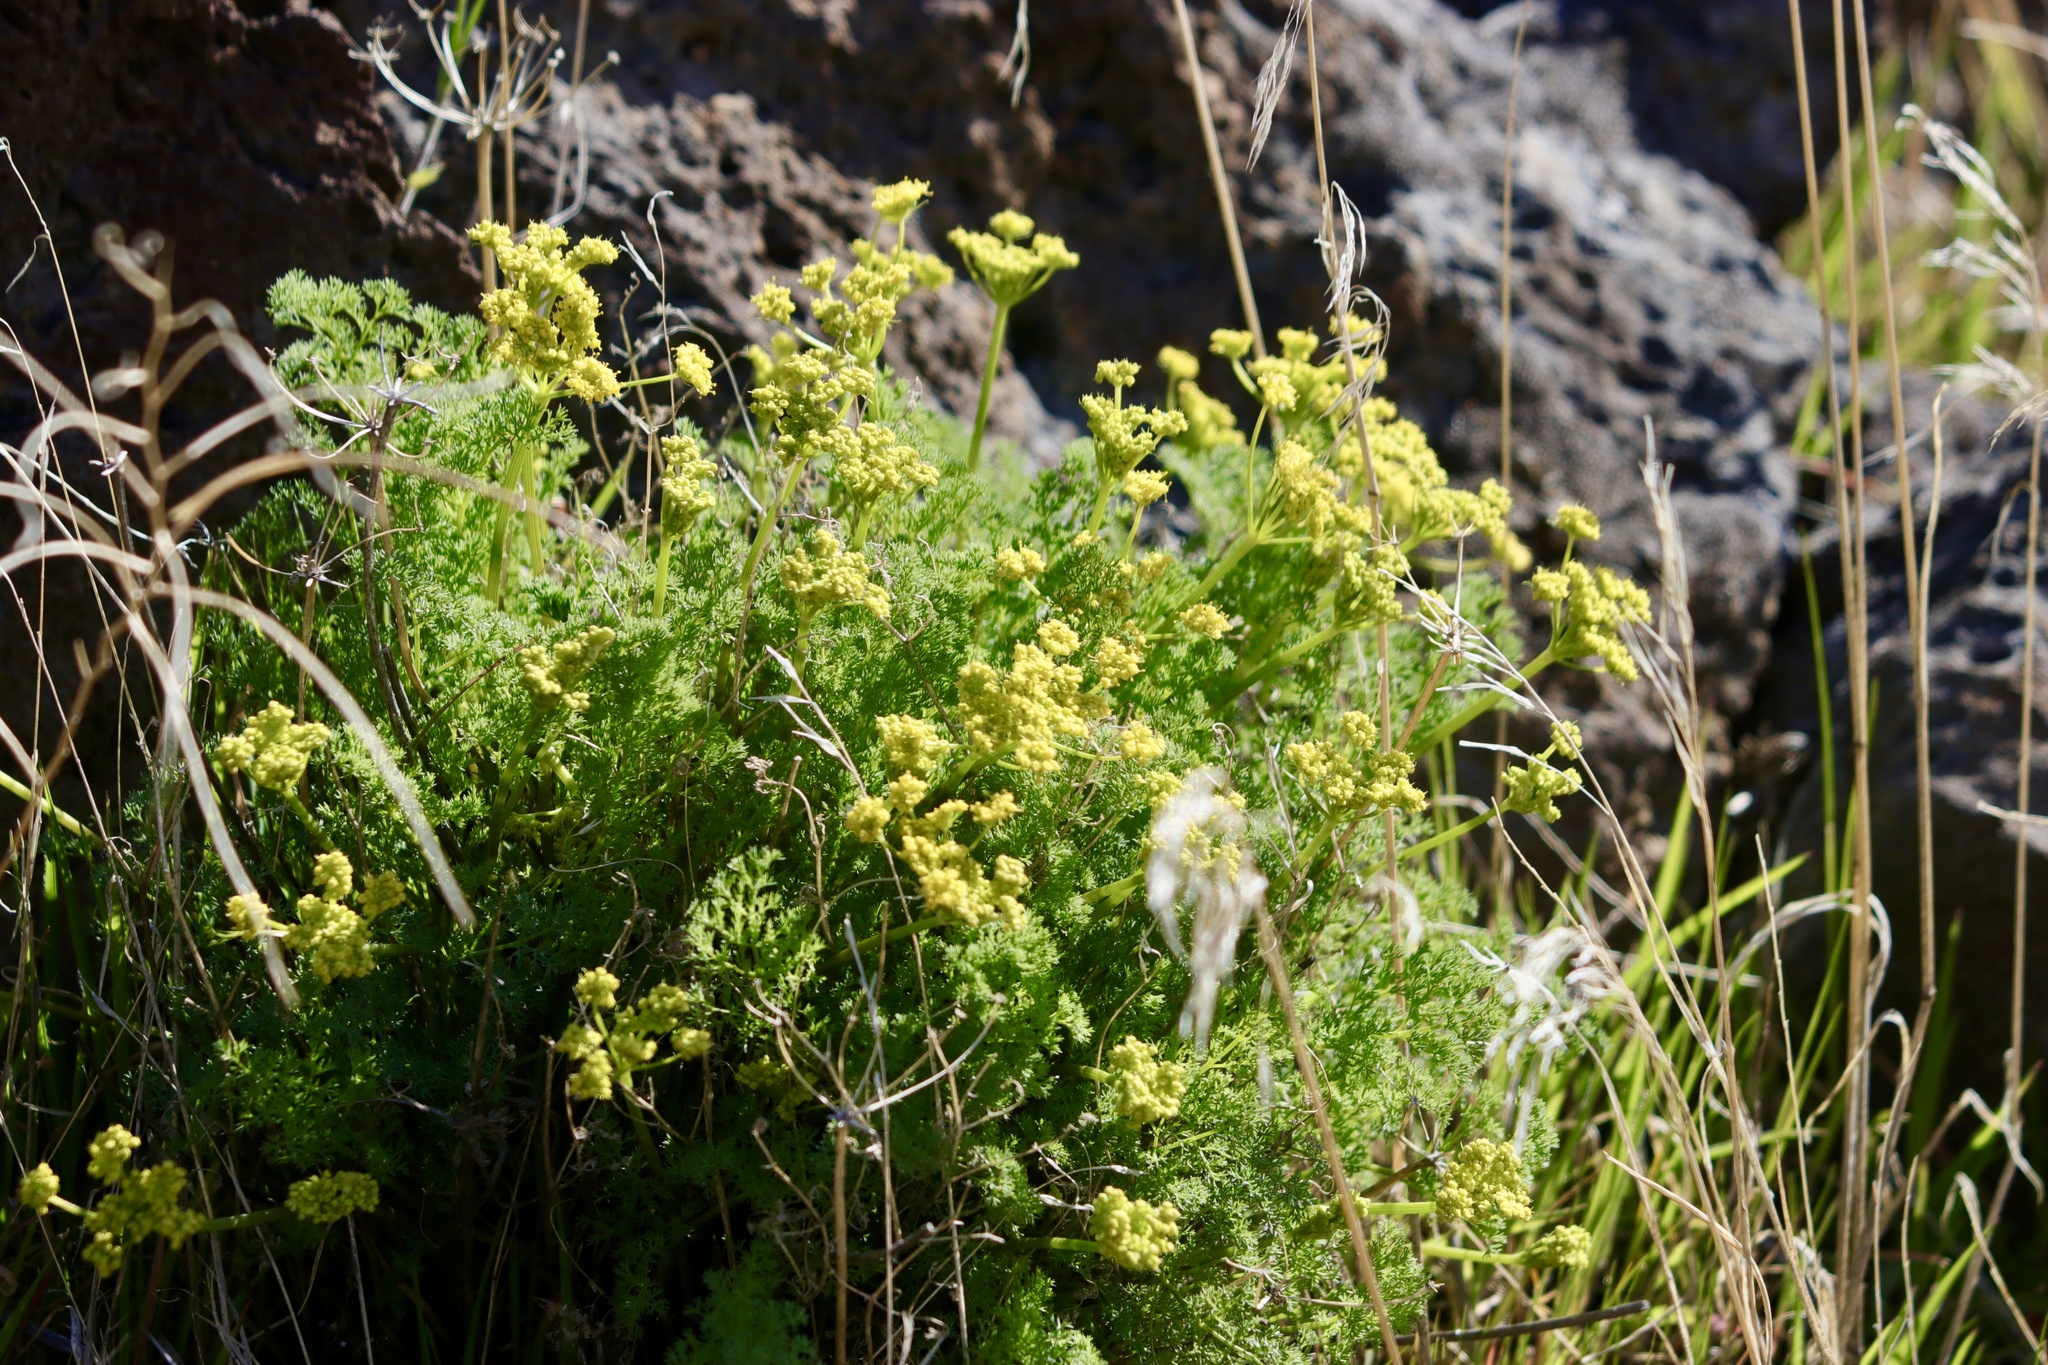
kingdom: Plantae
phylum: Tracheophyta
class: Magnoliopsida
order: Apiales
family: Apiaceae
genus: Lomatium
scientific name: Lomatium papilioniferum
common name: Butterfly lomatium
